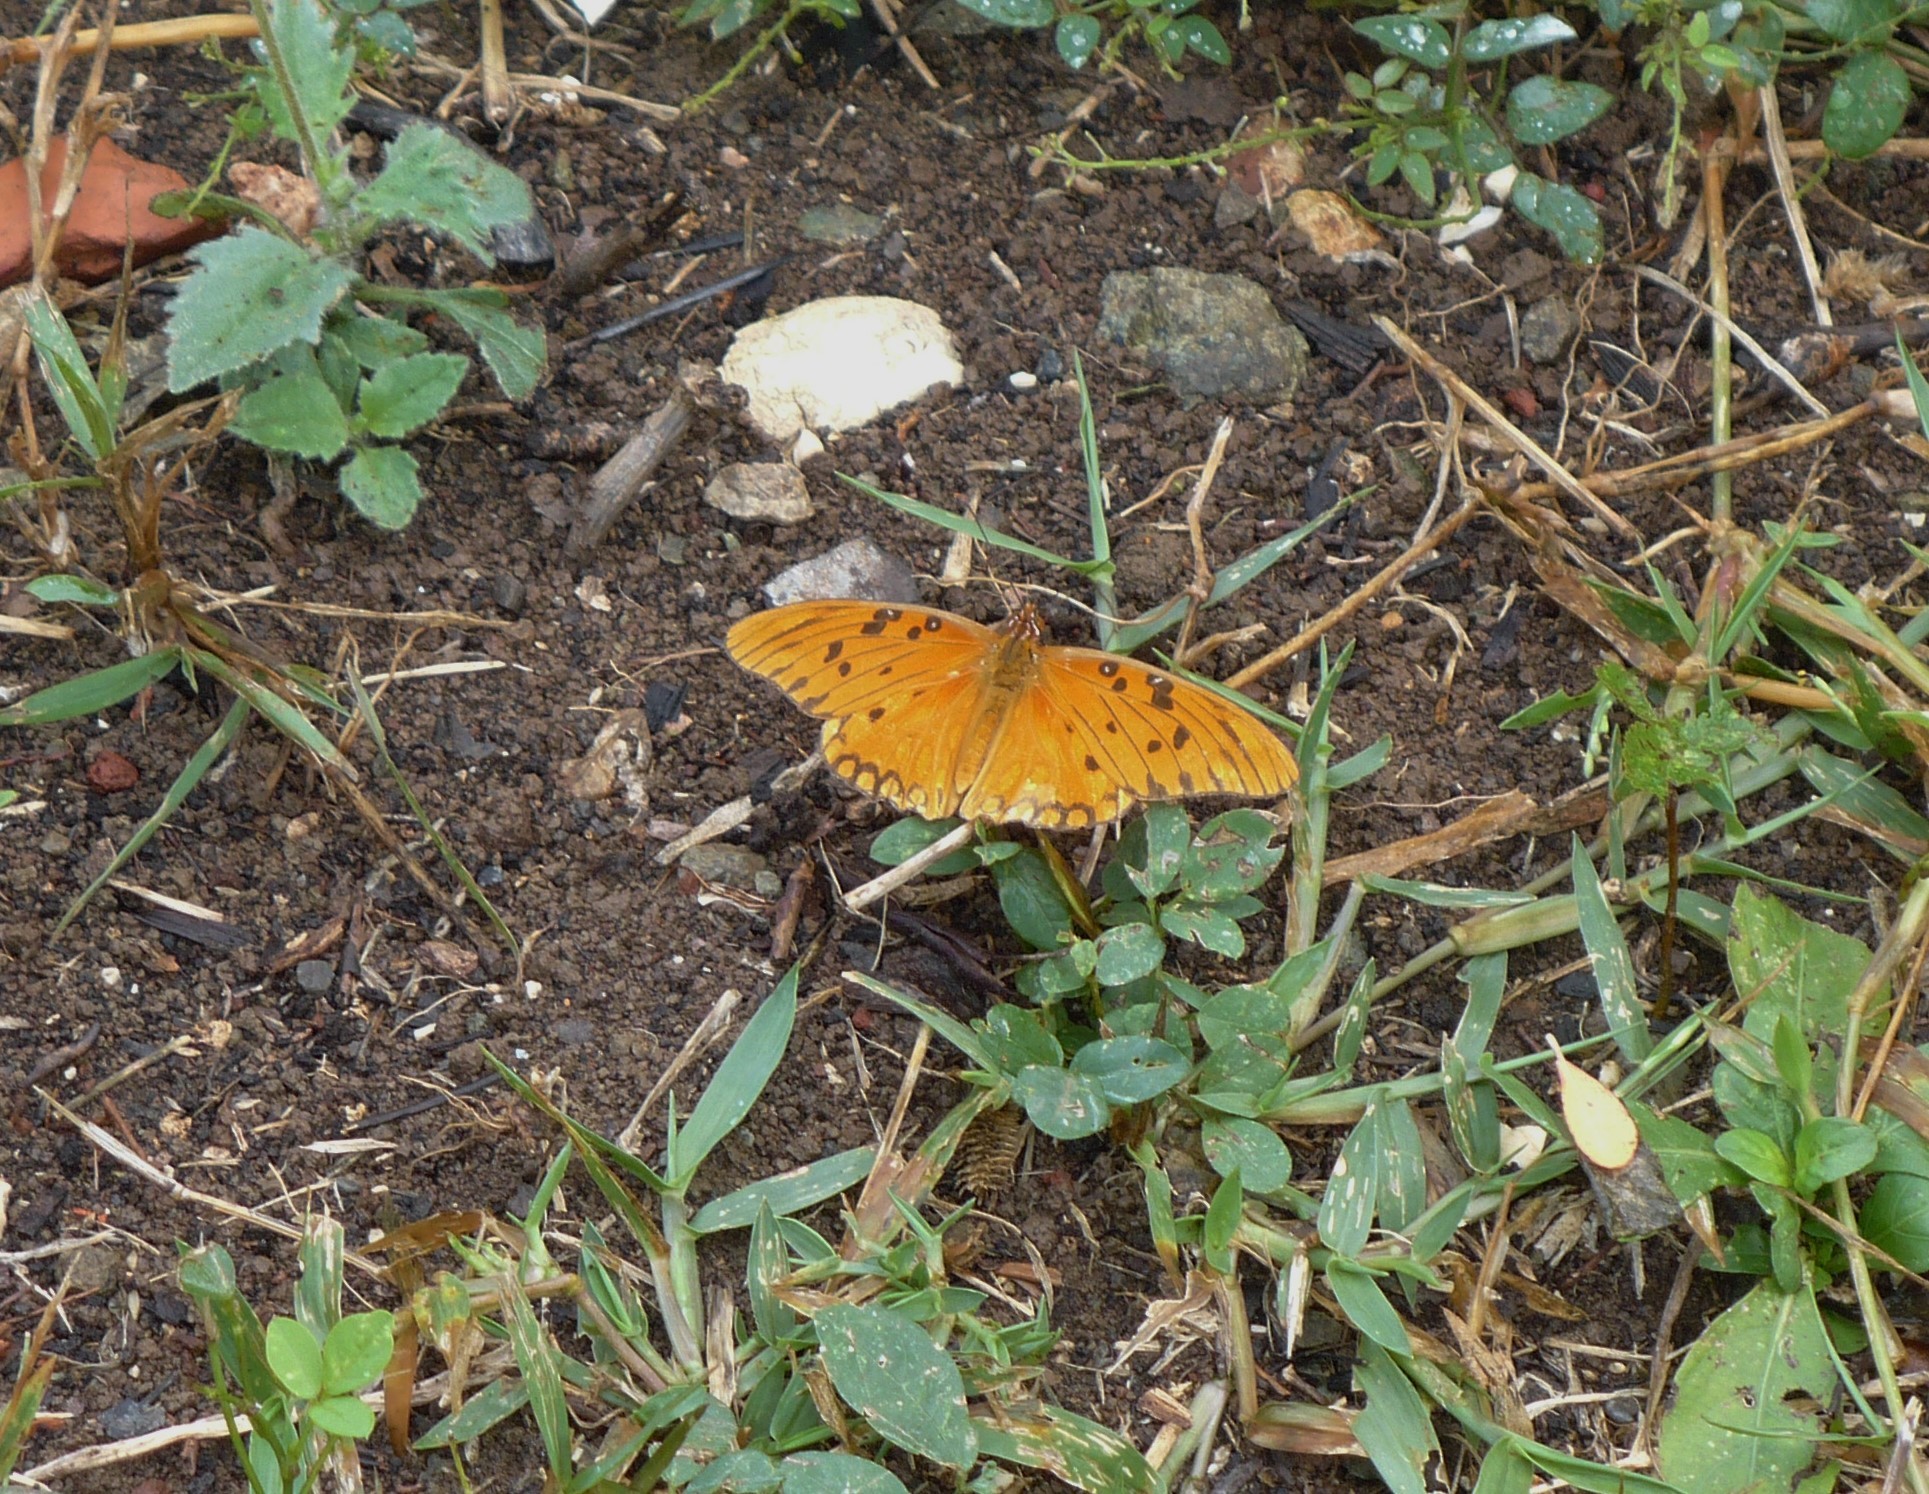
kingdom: Animalia
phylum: Arthropoda
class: Insecta
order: Lepidoptera
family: Nymphalidae
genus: Dione
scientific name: Dione vanillae
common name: Gulf fritillary
